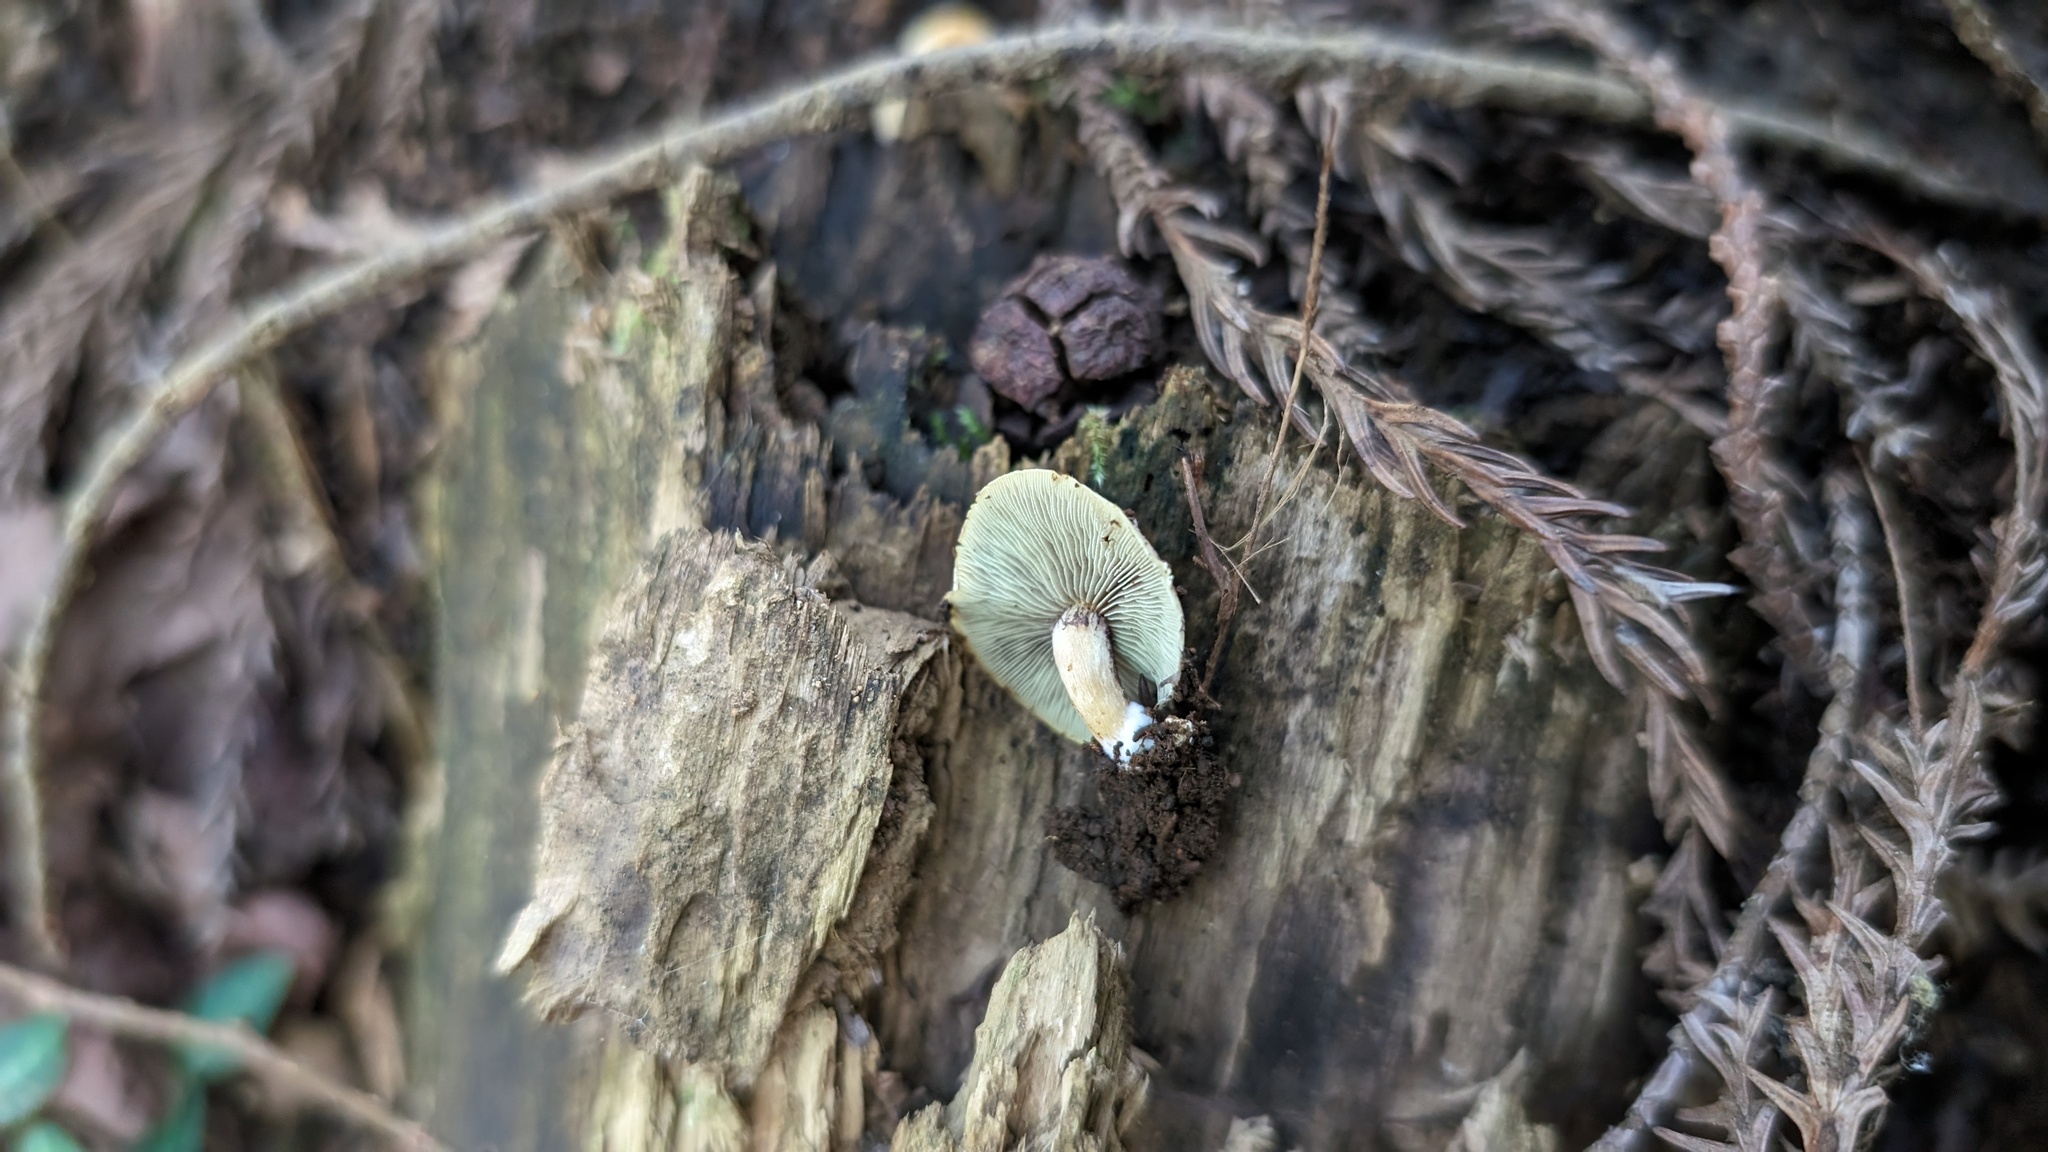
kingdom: Fungi
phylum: Basidiomycota
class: Agaricomycetes
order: Agaricales
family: Strophariaceae
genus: Hypholoma
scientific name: Hypholoma fasciculare
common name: Sulphur tuft
